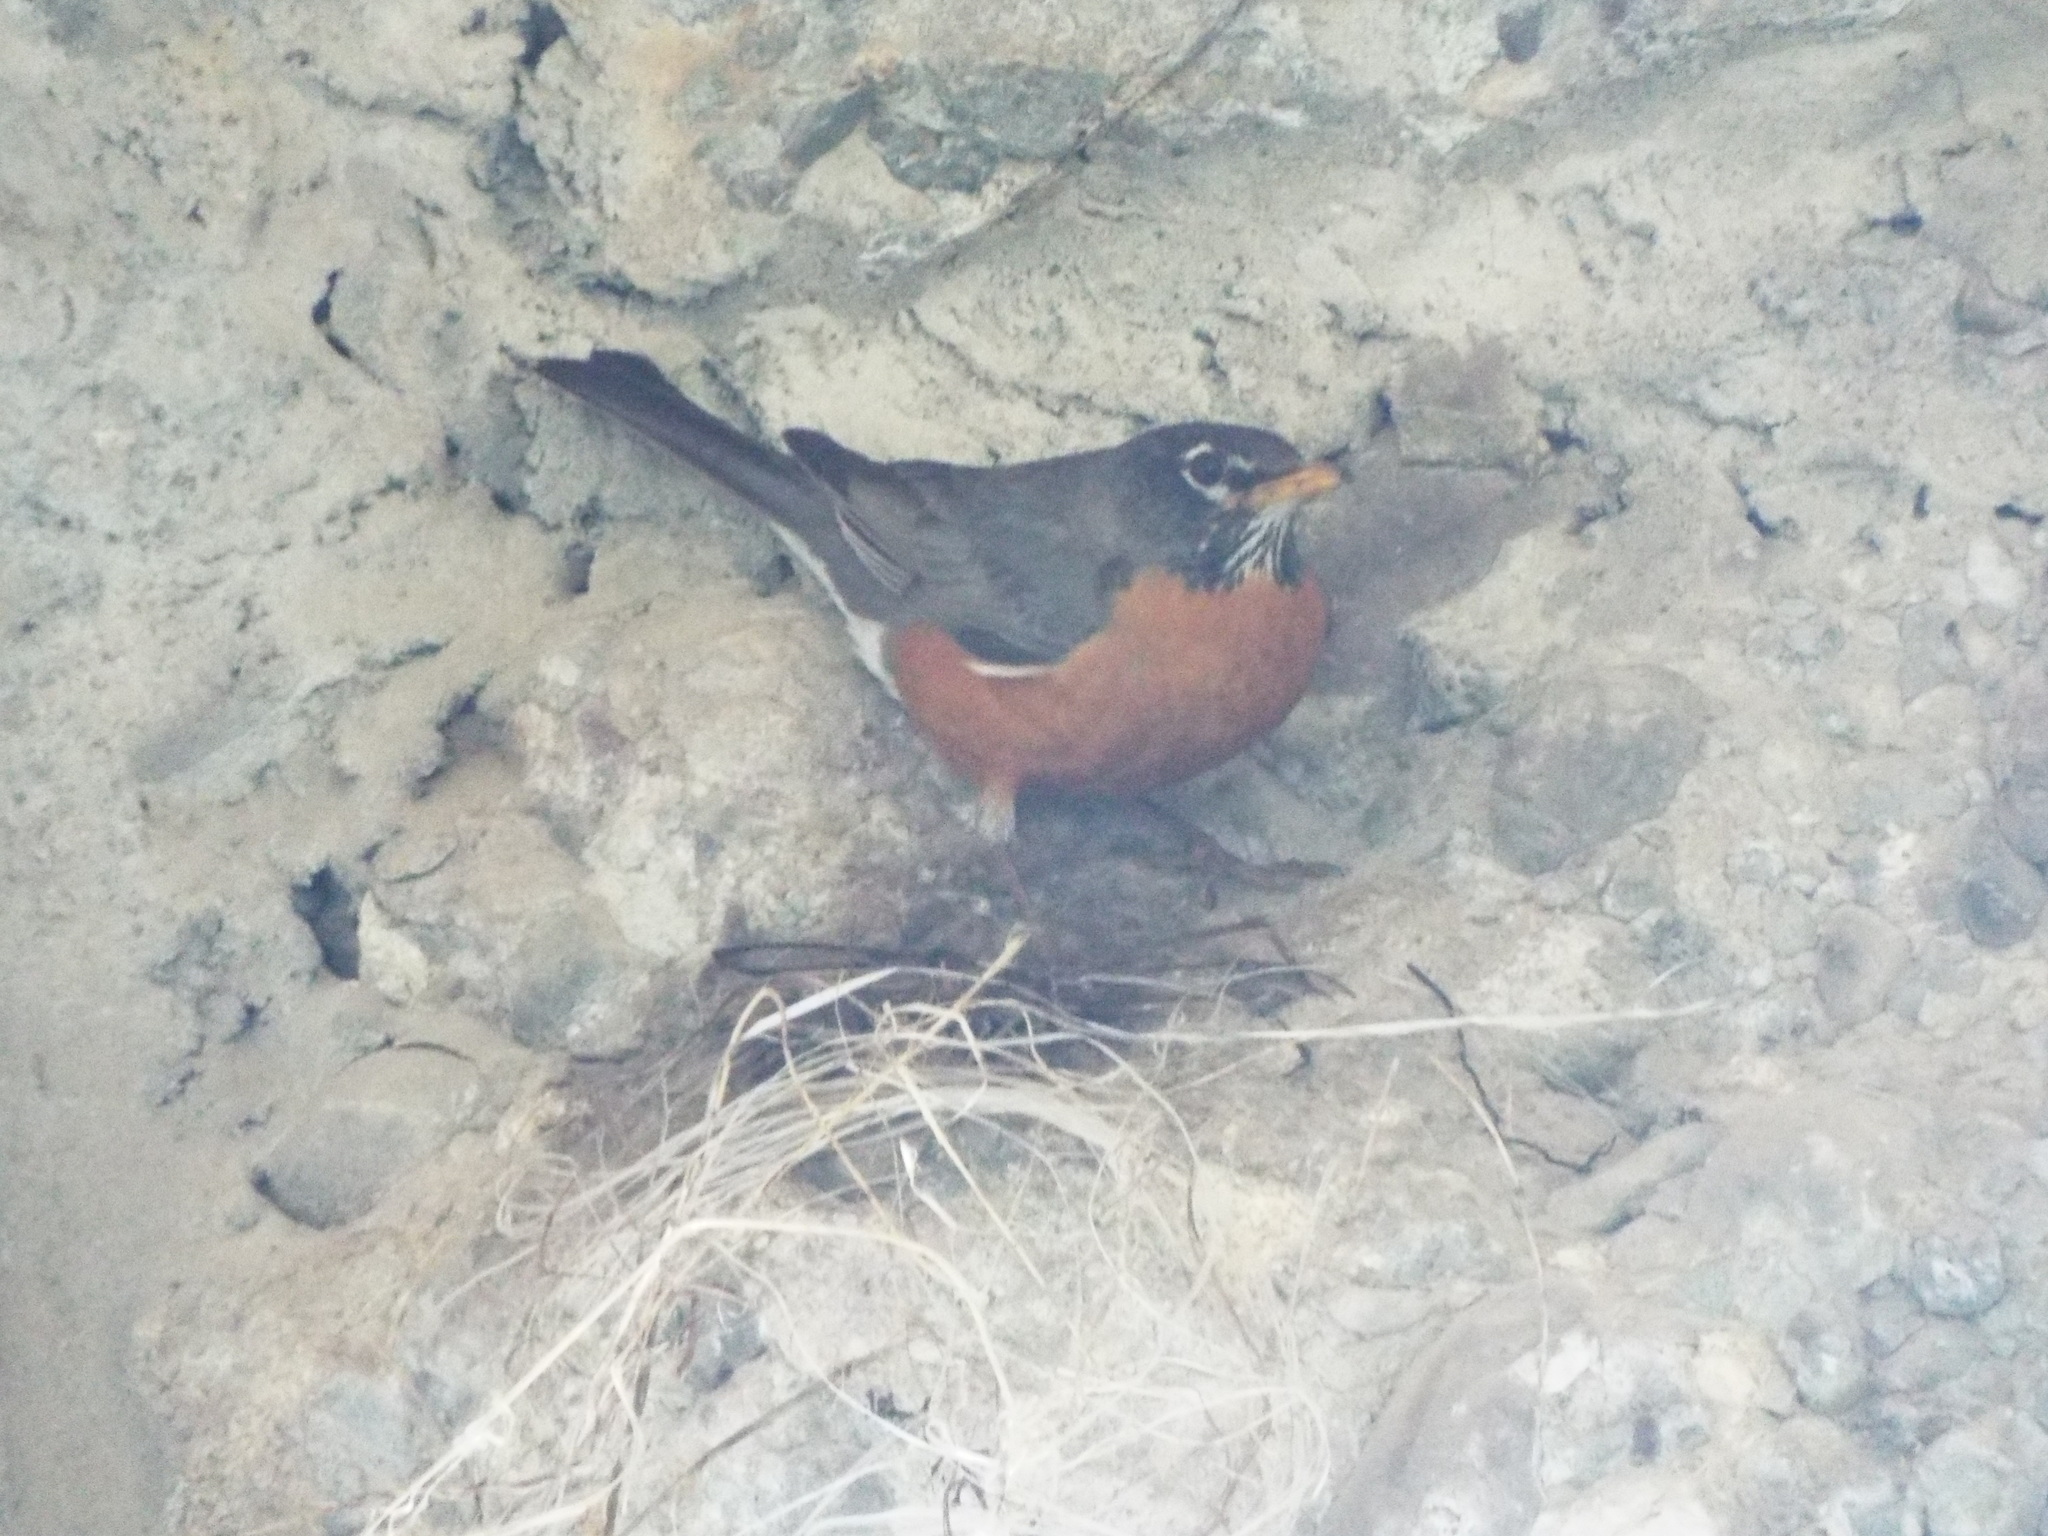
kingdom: Animalia
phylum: Chordata
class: Aves
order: Passeriformes
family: Turdidae
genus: Turdus
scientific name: Turdus migratorius
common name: American robin
